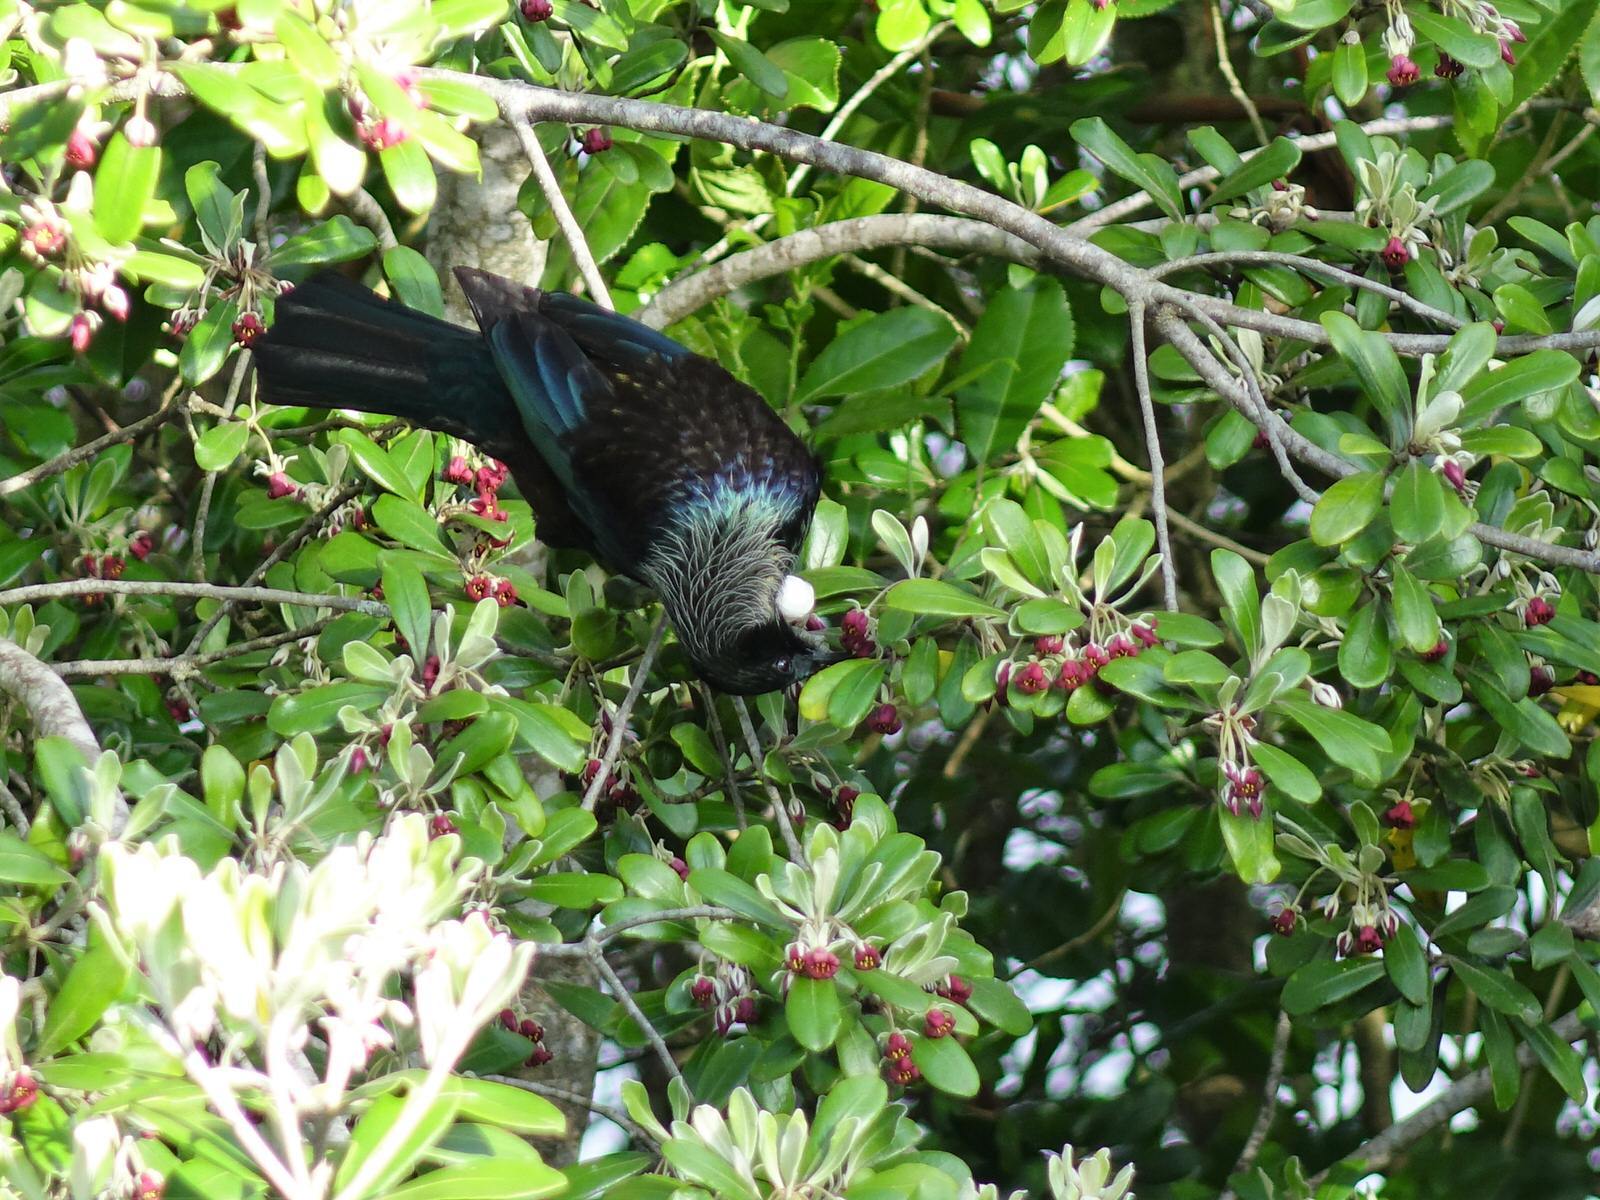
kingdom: Animalia
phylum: Chordata
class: Aves
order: Passeriformes
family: Meliphagidae
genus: Prosthemadera
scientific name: Prosthemadera novaeseelandiae
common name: Tui
